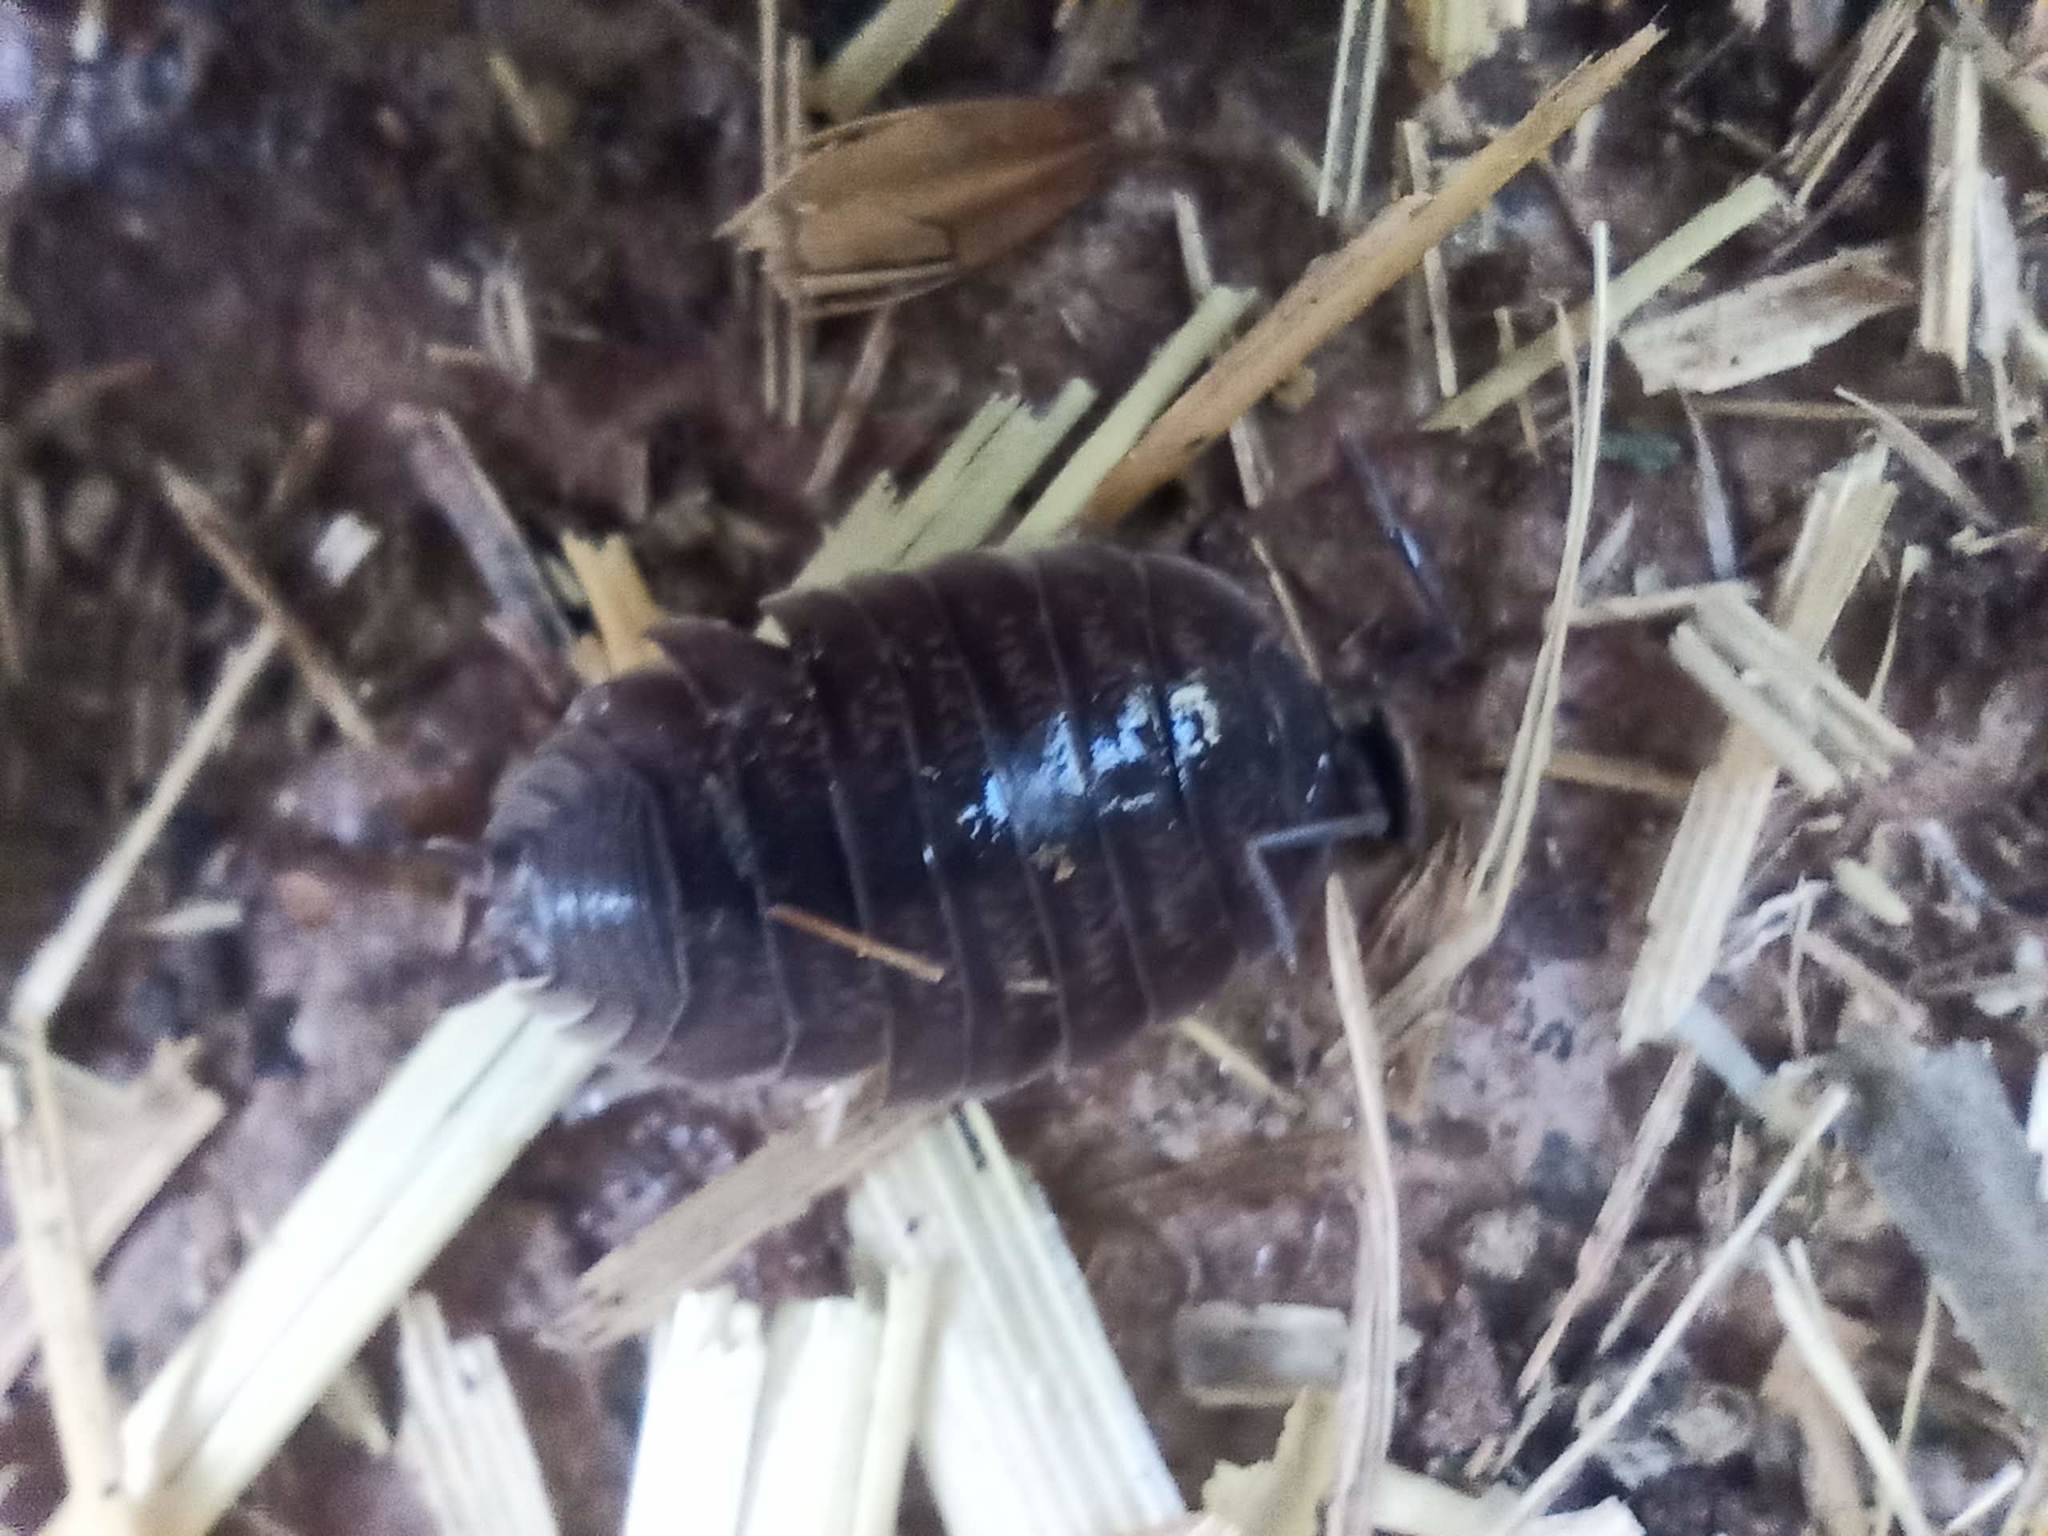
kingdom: Animalia
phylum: Arthropoda
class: Malacostraca
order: Isopoda
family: Porcellionidae
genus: Porcellio
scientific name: Porcellio laevis
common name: Swift woodlouse
